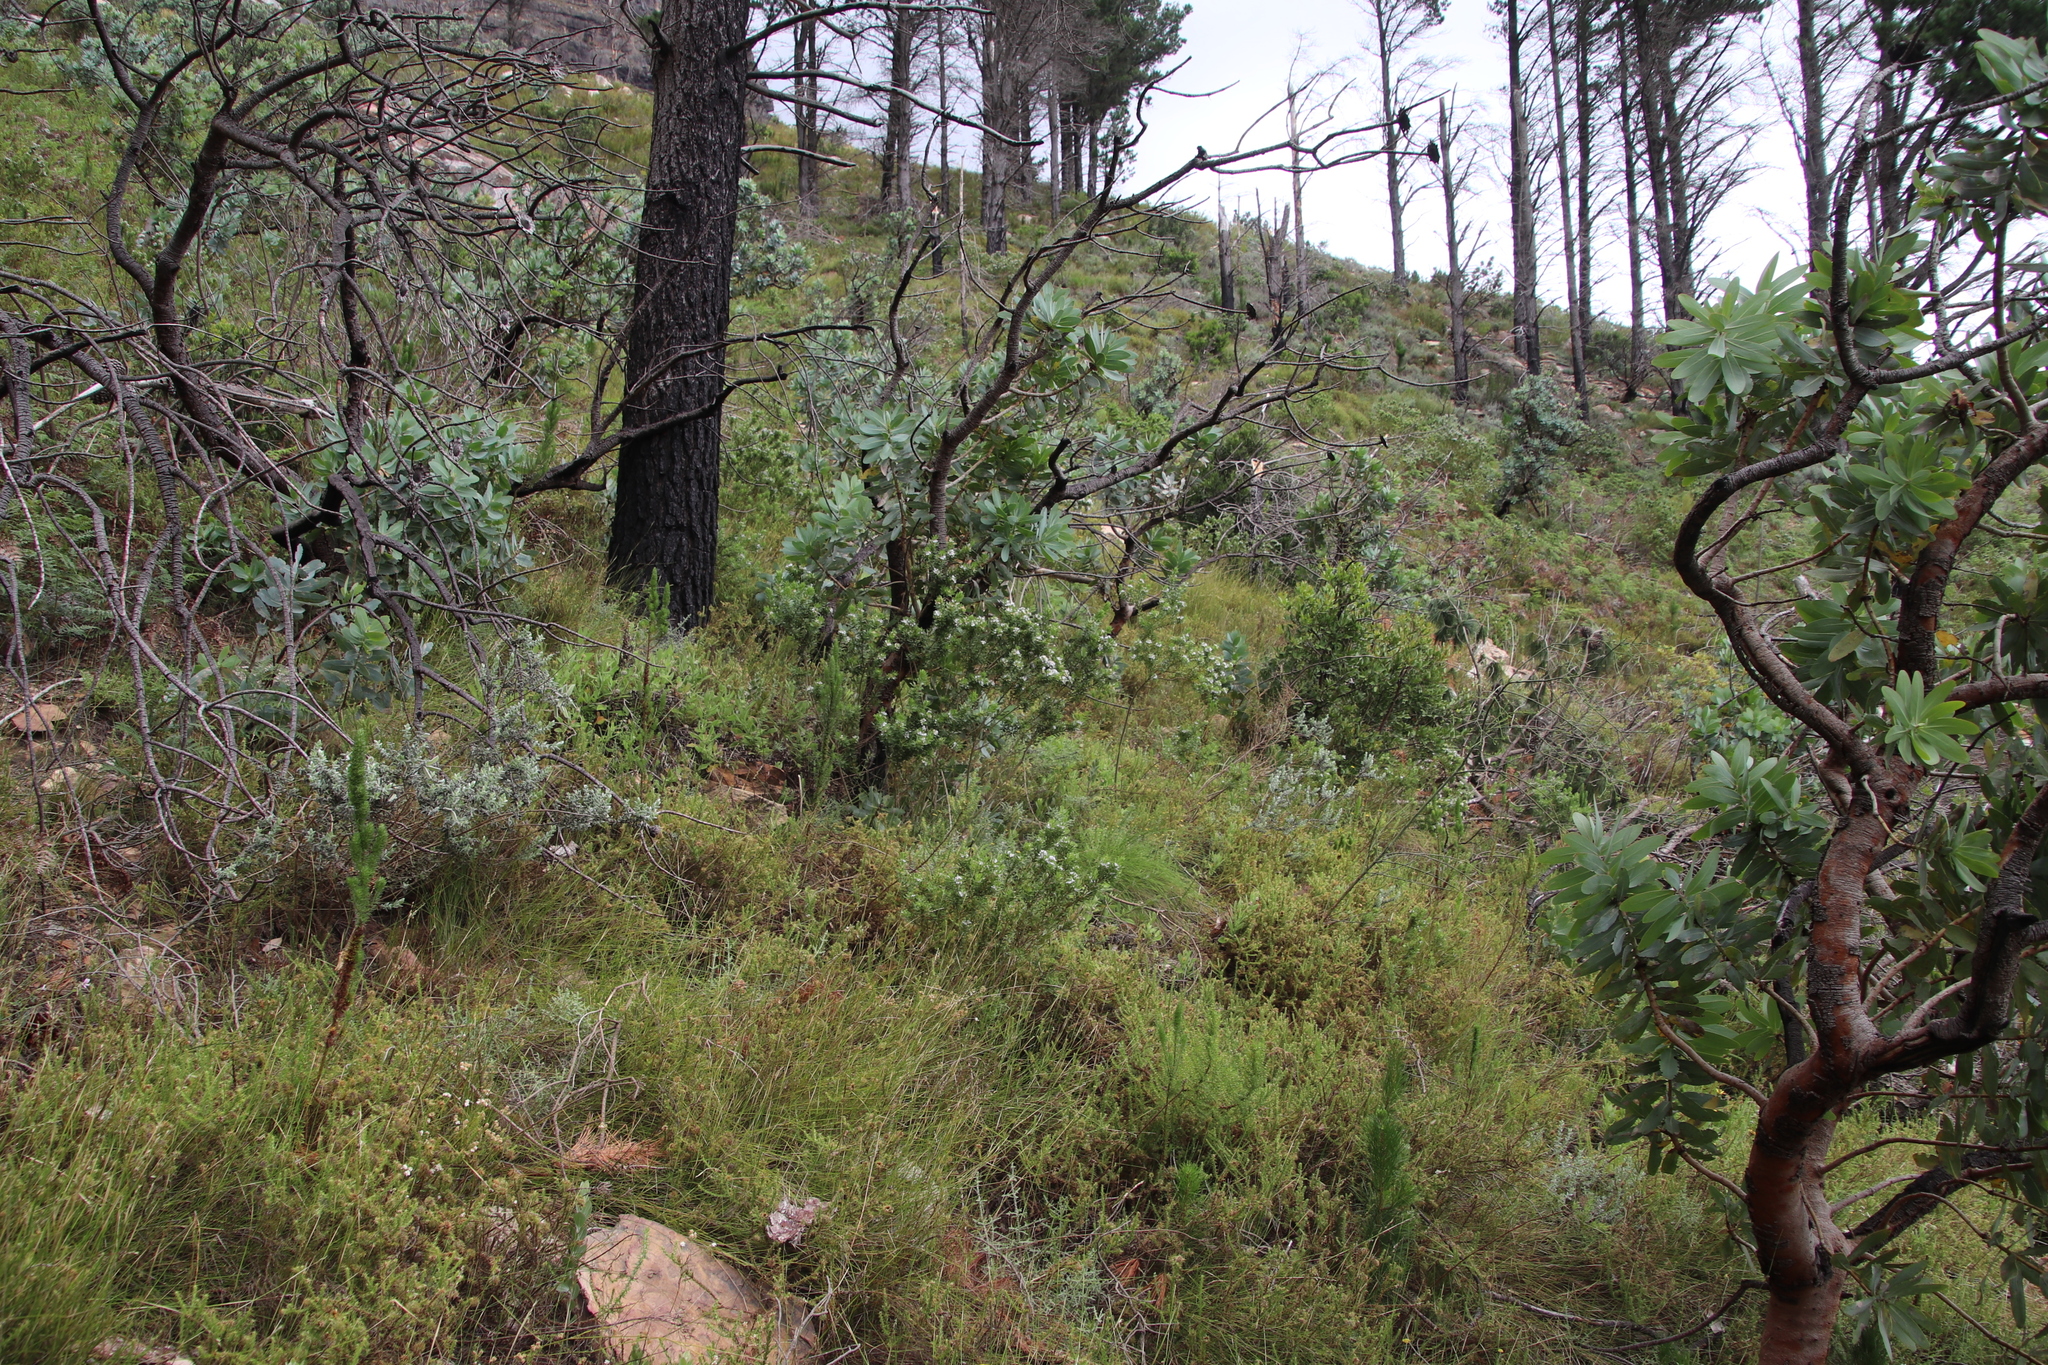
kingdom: Plantae
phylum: Tracheophyta
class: Magnoliopsida
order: Proteales
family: Proteaceae
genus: Protea
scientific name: Protea nitida
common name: Tree protea
